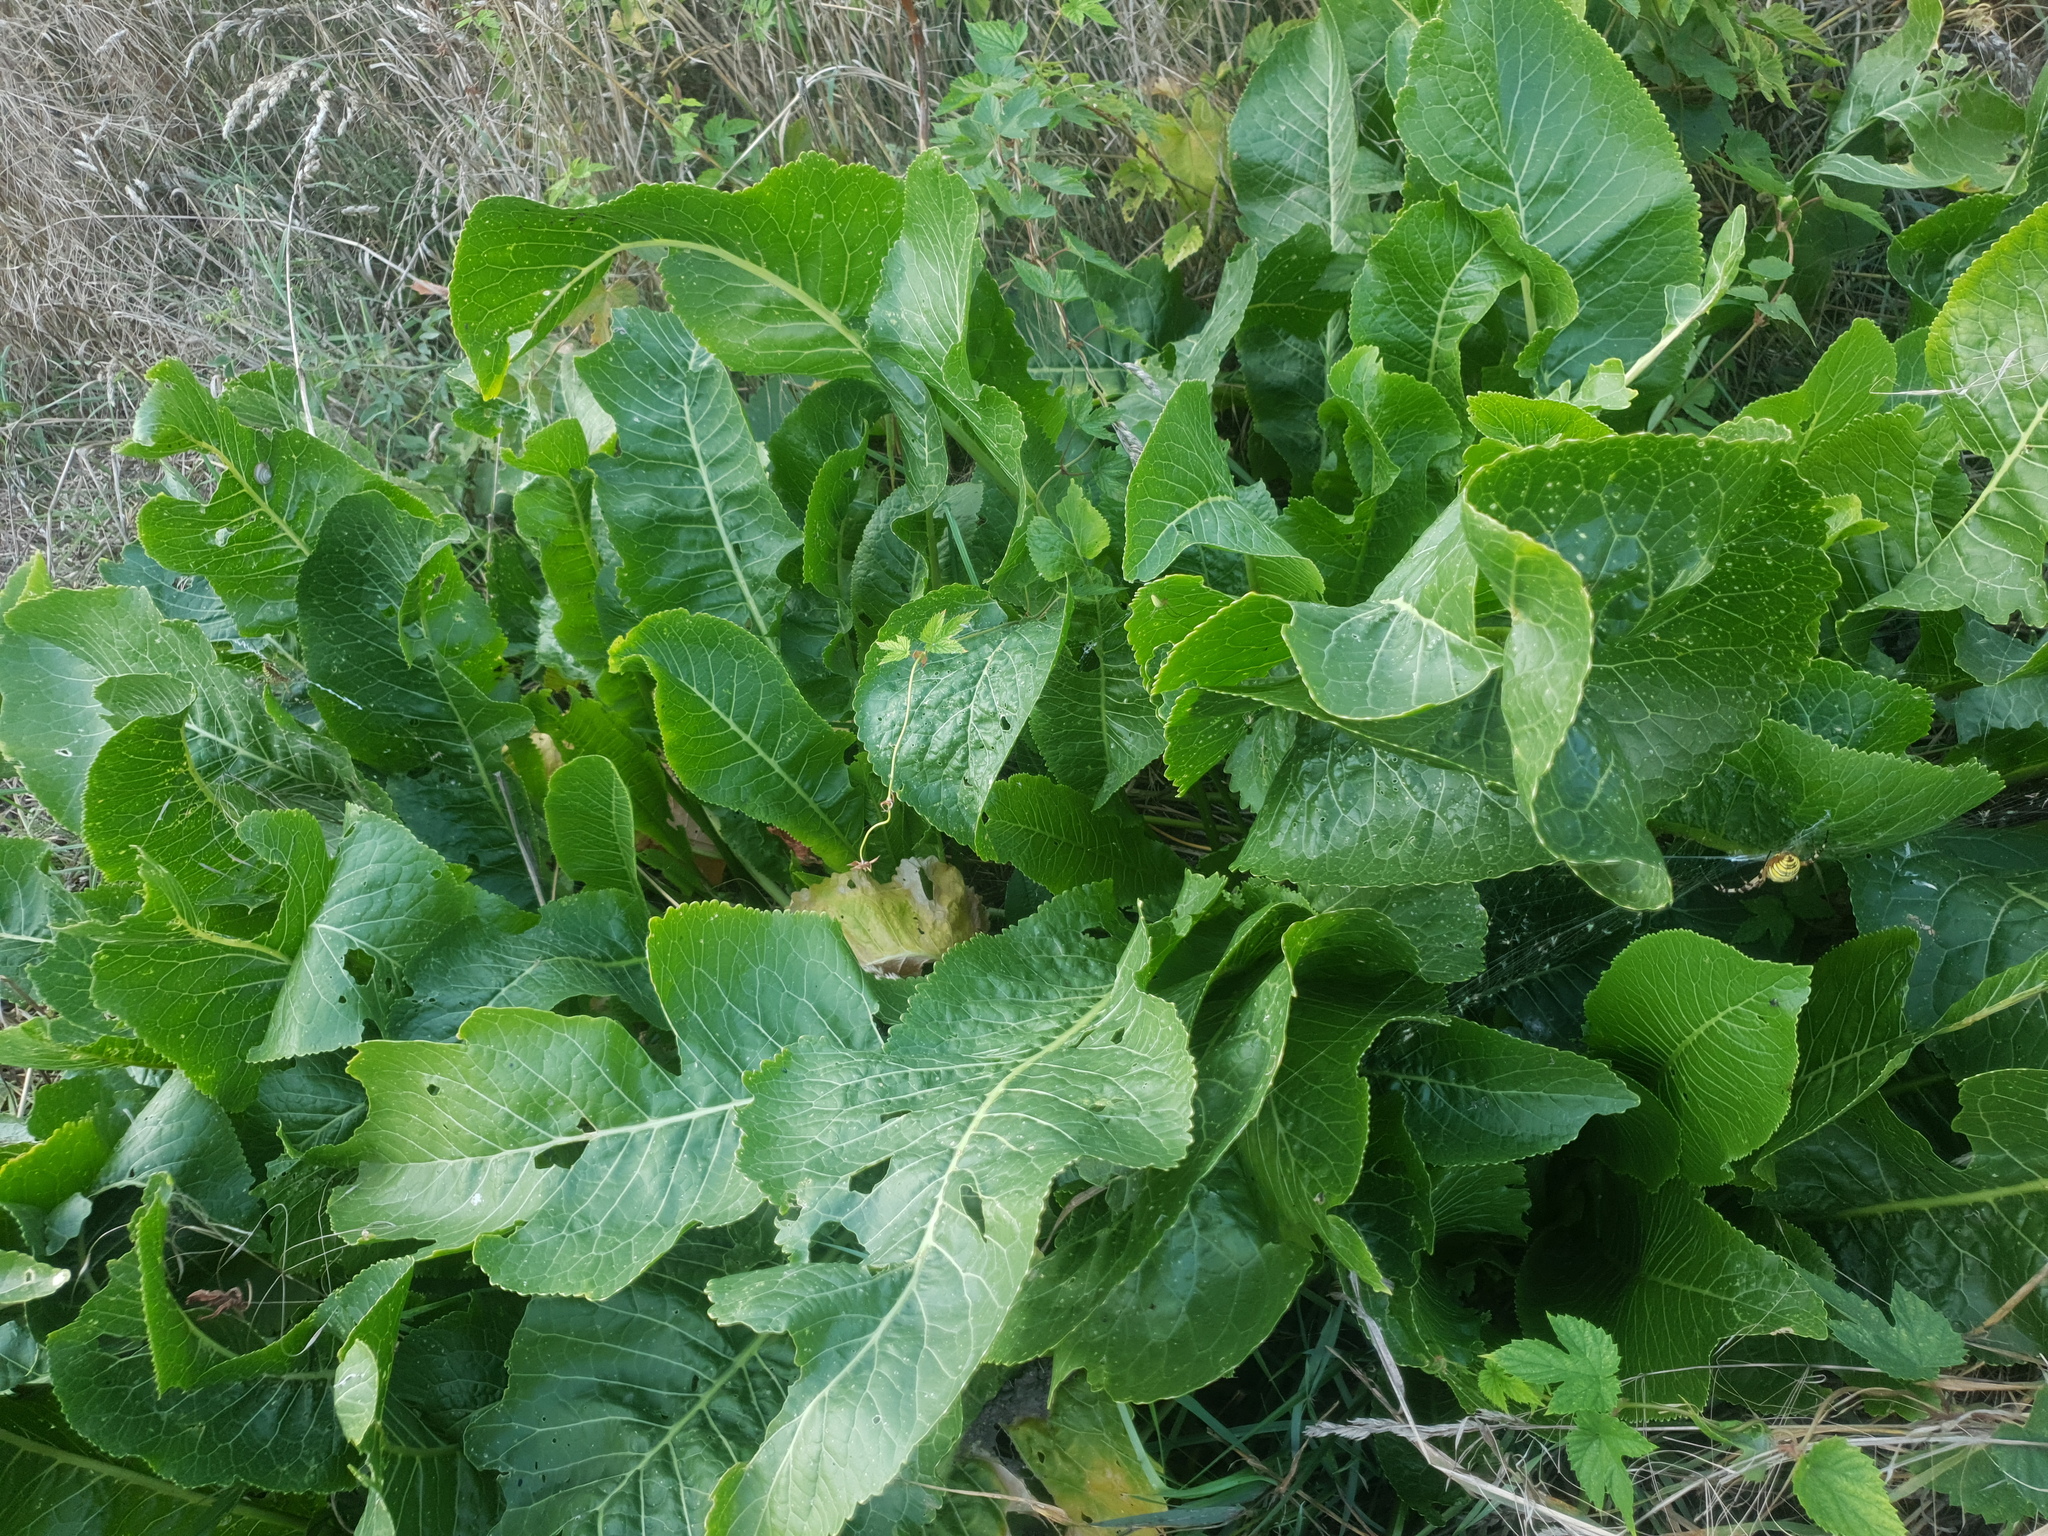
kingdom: Plantae
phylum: Tracheophyta
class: Magnoliopsida
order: Brassicales
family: Brassicaceae
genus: Armoracia
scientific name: Armoracia rusticana
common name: Horseradish
